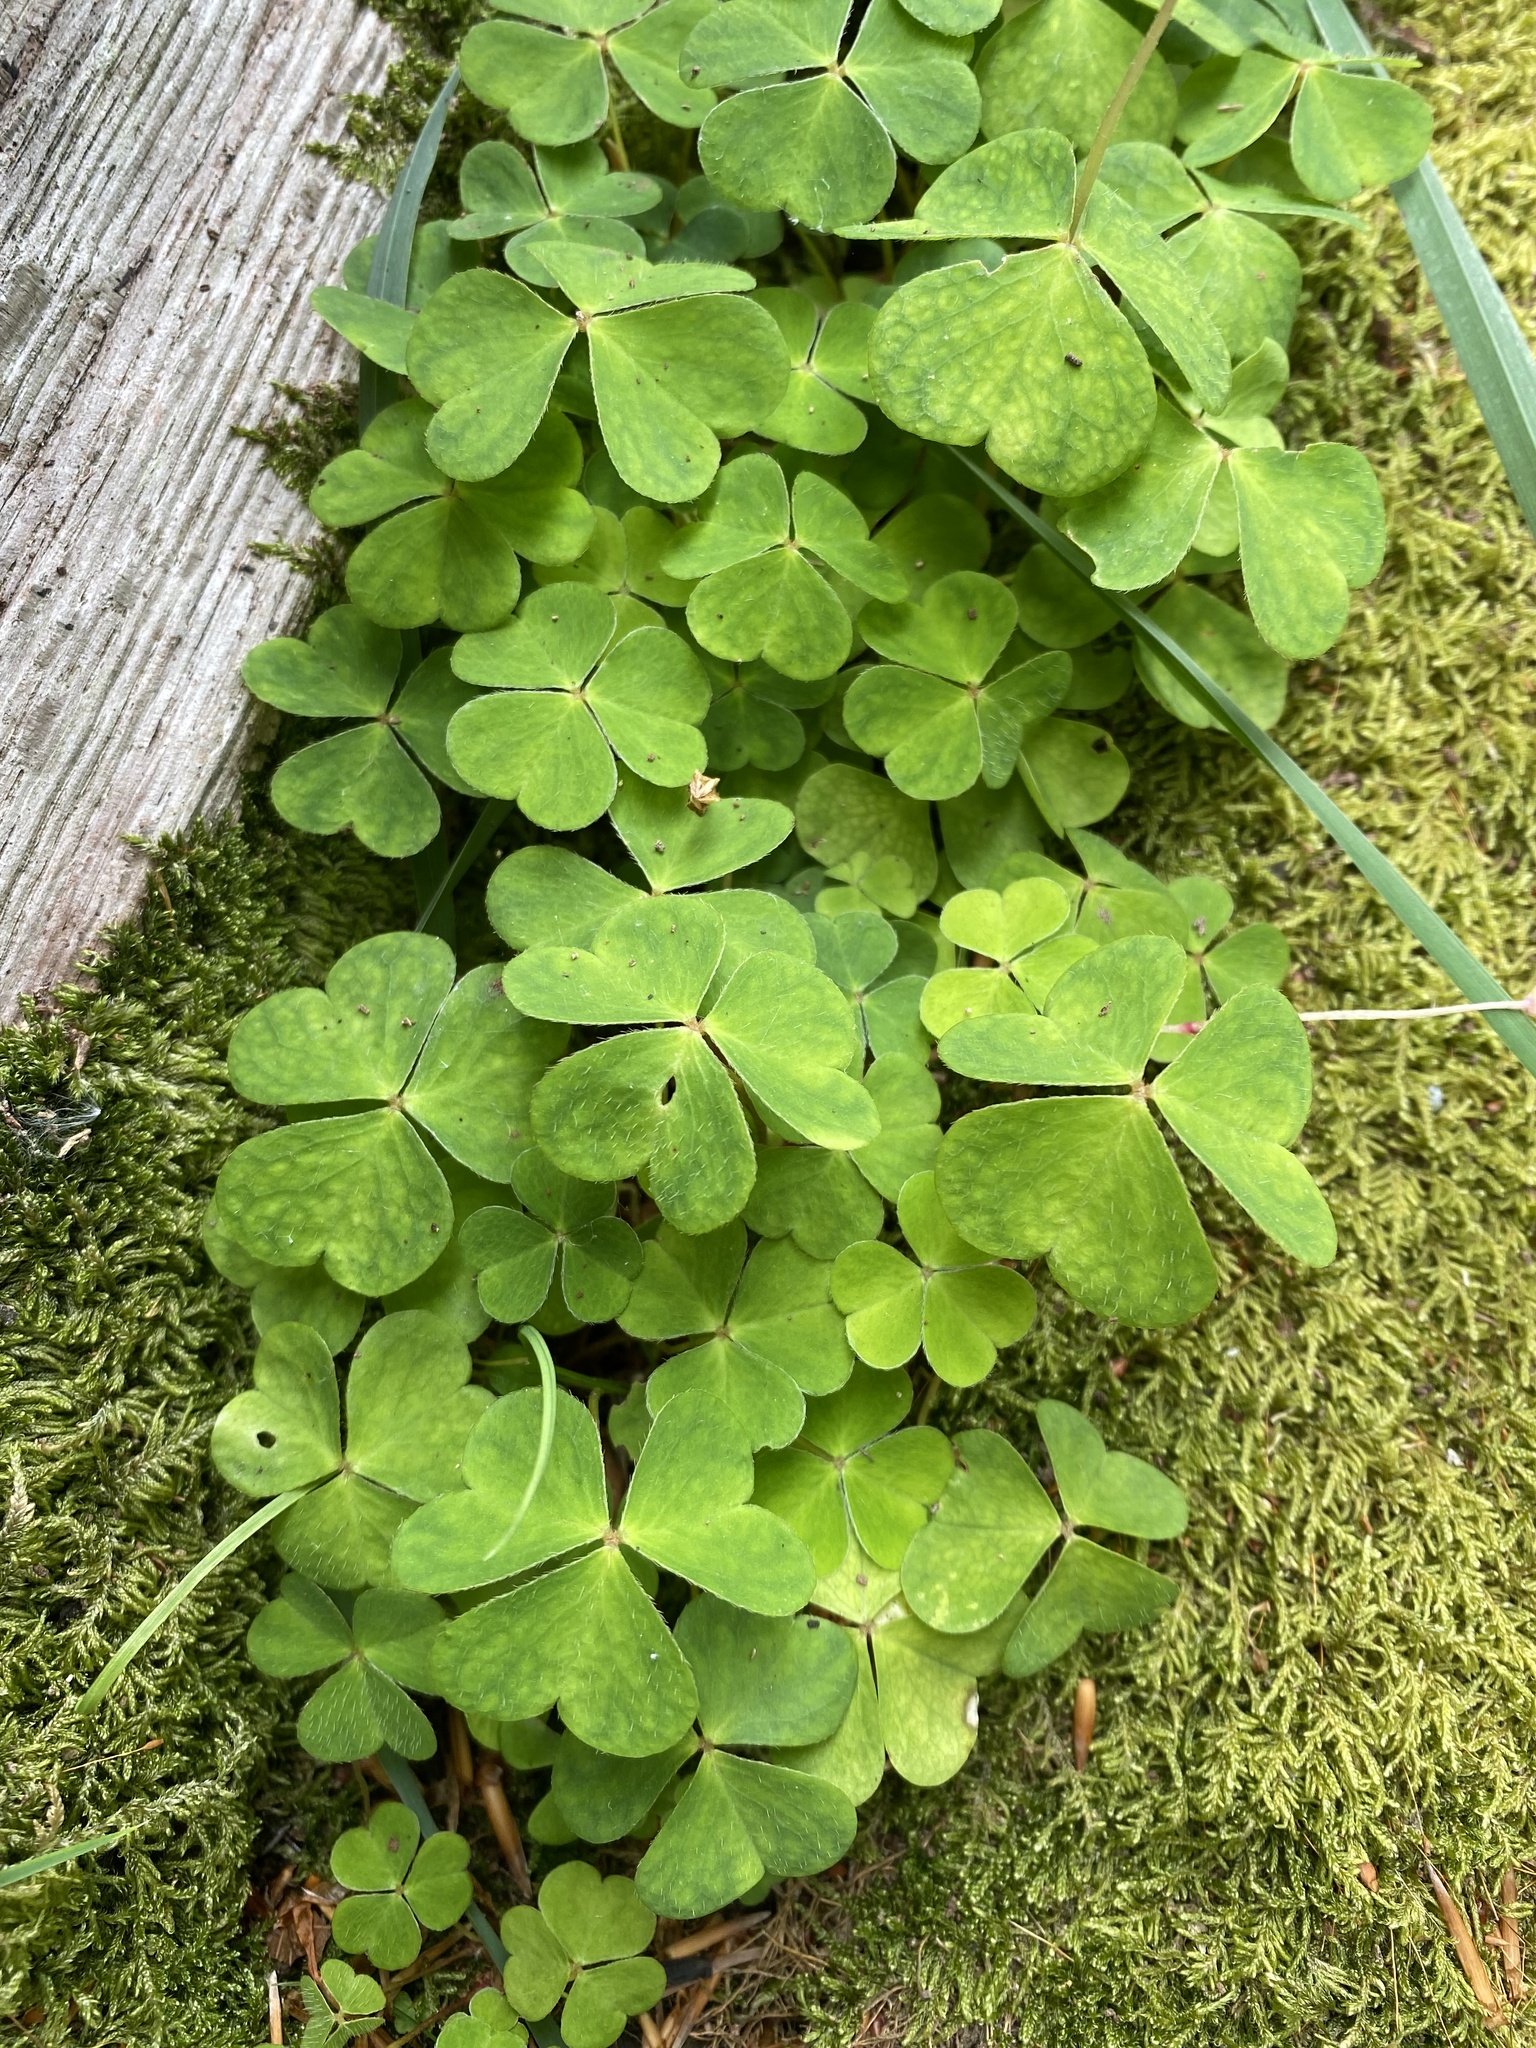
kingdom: Plantae
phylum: Tracheophyta
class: Magnoliopsida
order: Oxalidales
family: Oxalidaceae
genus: Oxalis
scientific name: Oxalis acetosella
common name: Wood-sorrel
